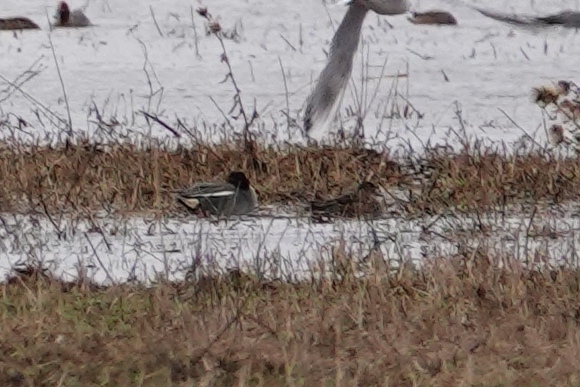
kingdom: Animalia
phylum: Chordata
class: Aves
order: Anseriformes
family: Anatidae
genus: Anas
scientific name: Anas crecca
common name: Eurasian teal
